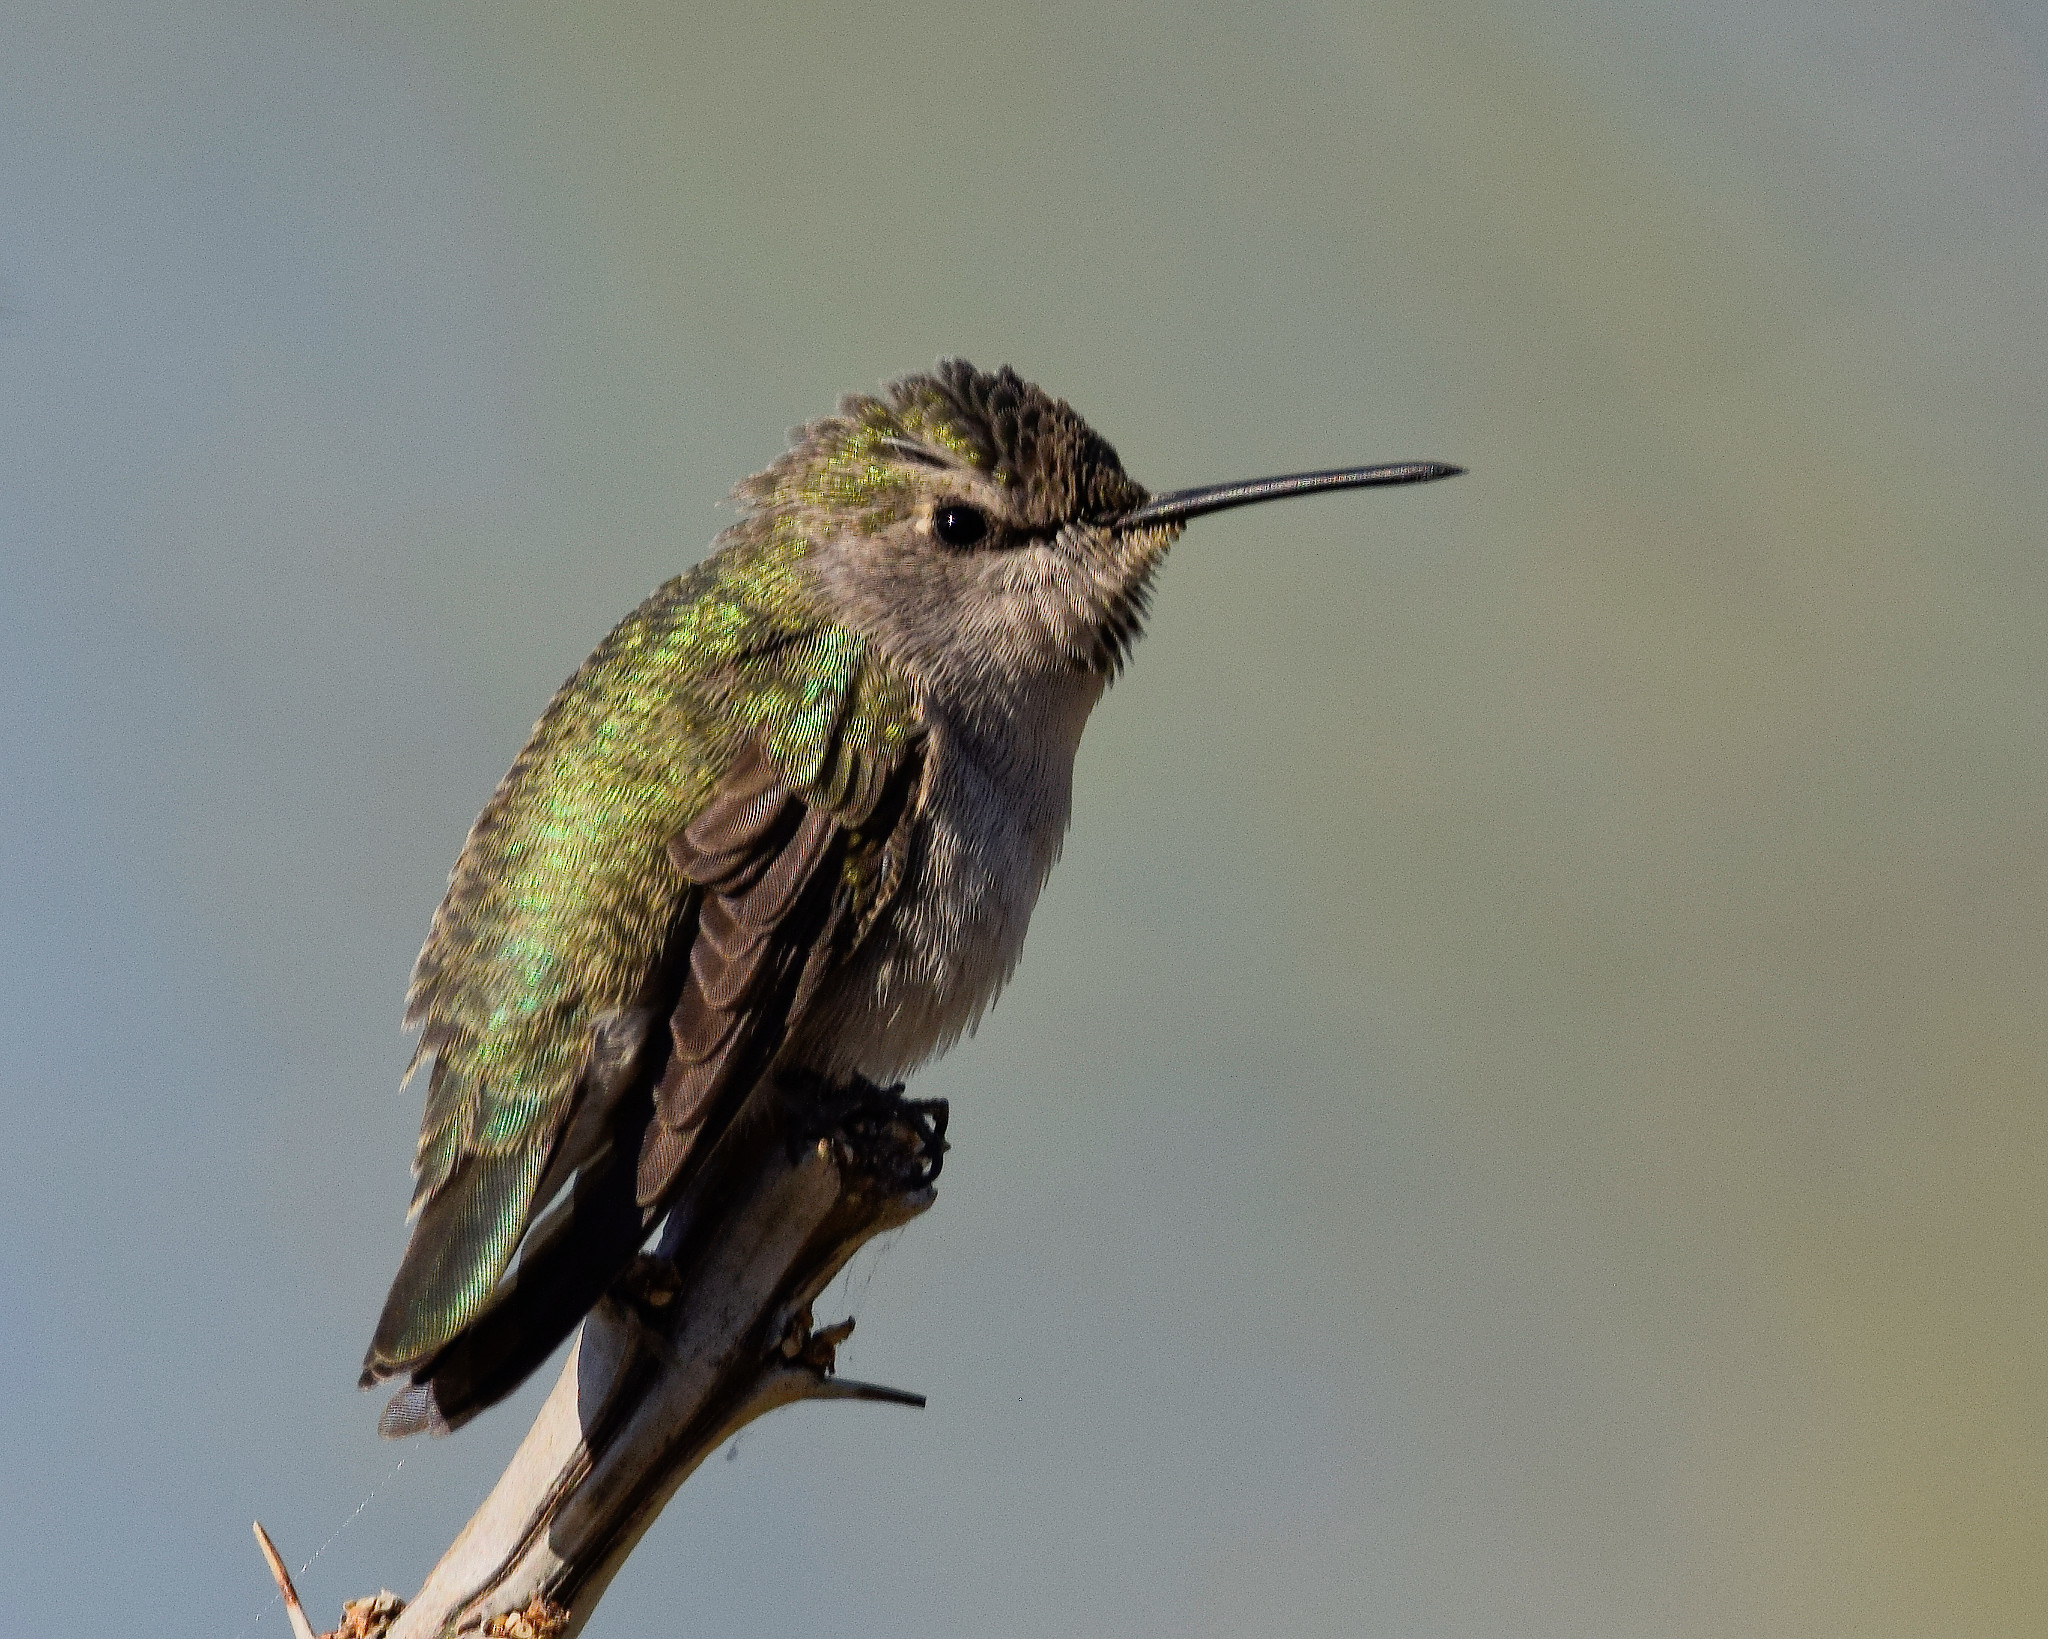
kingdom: Animalia
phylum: Chordata
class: Aves
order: Apodiformes
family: Trochilidae
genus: Calypte
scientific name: Calypte anna
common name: Anna's hummingbird
